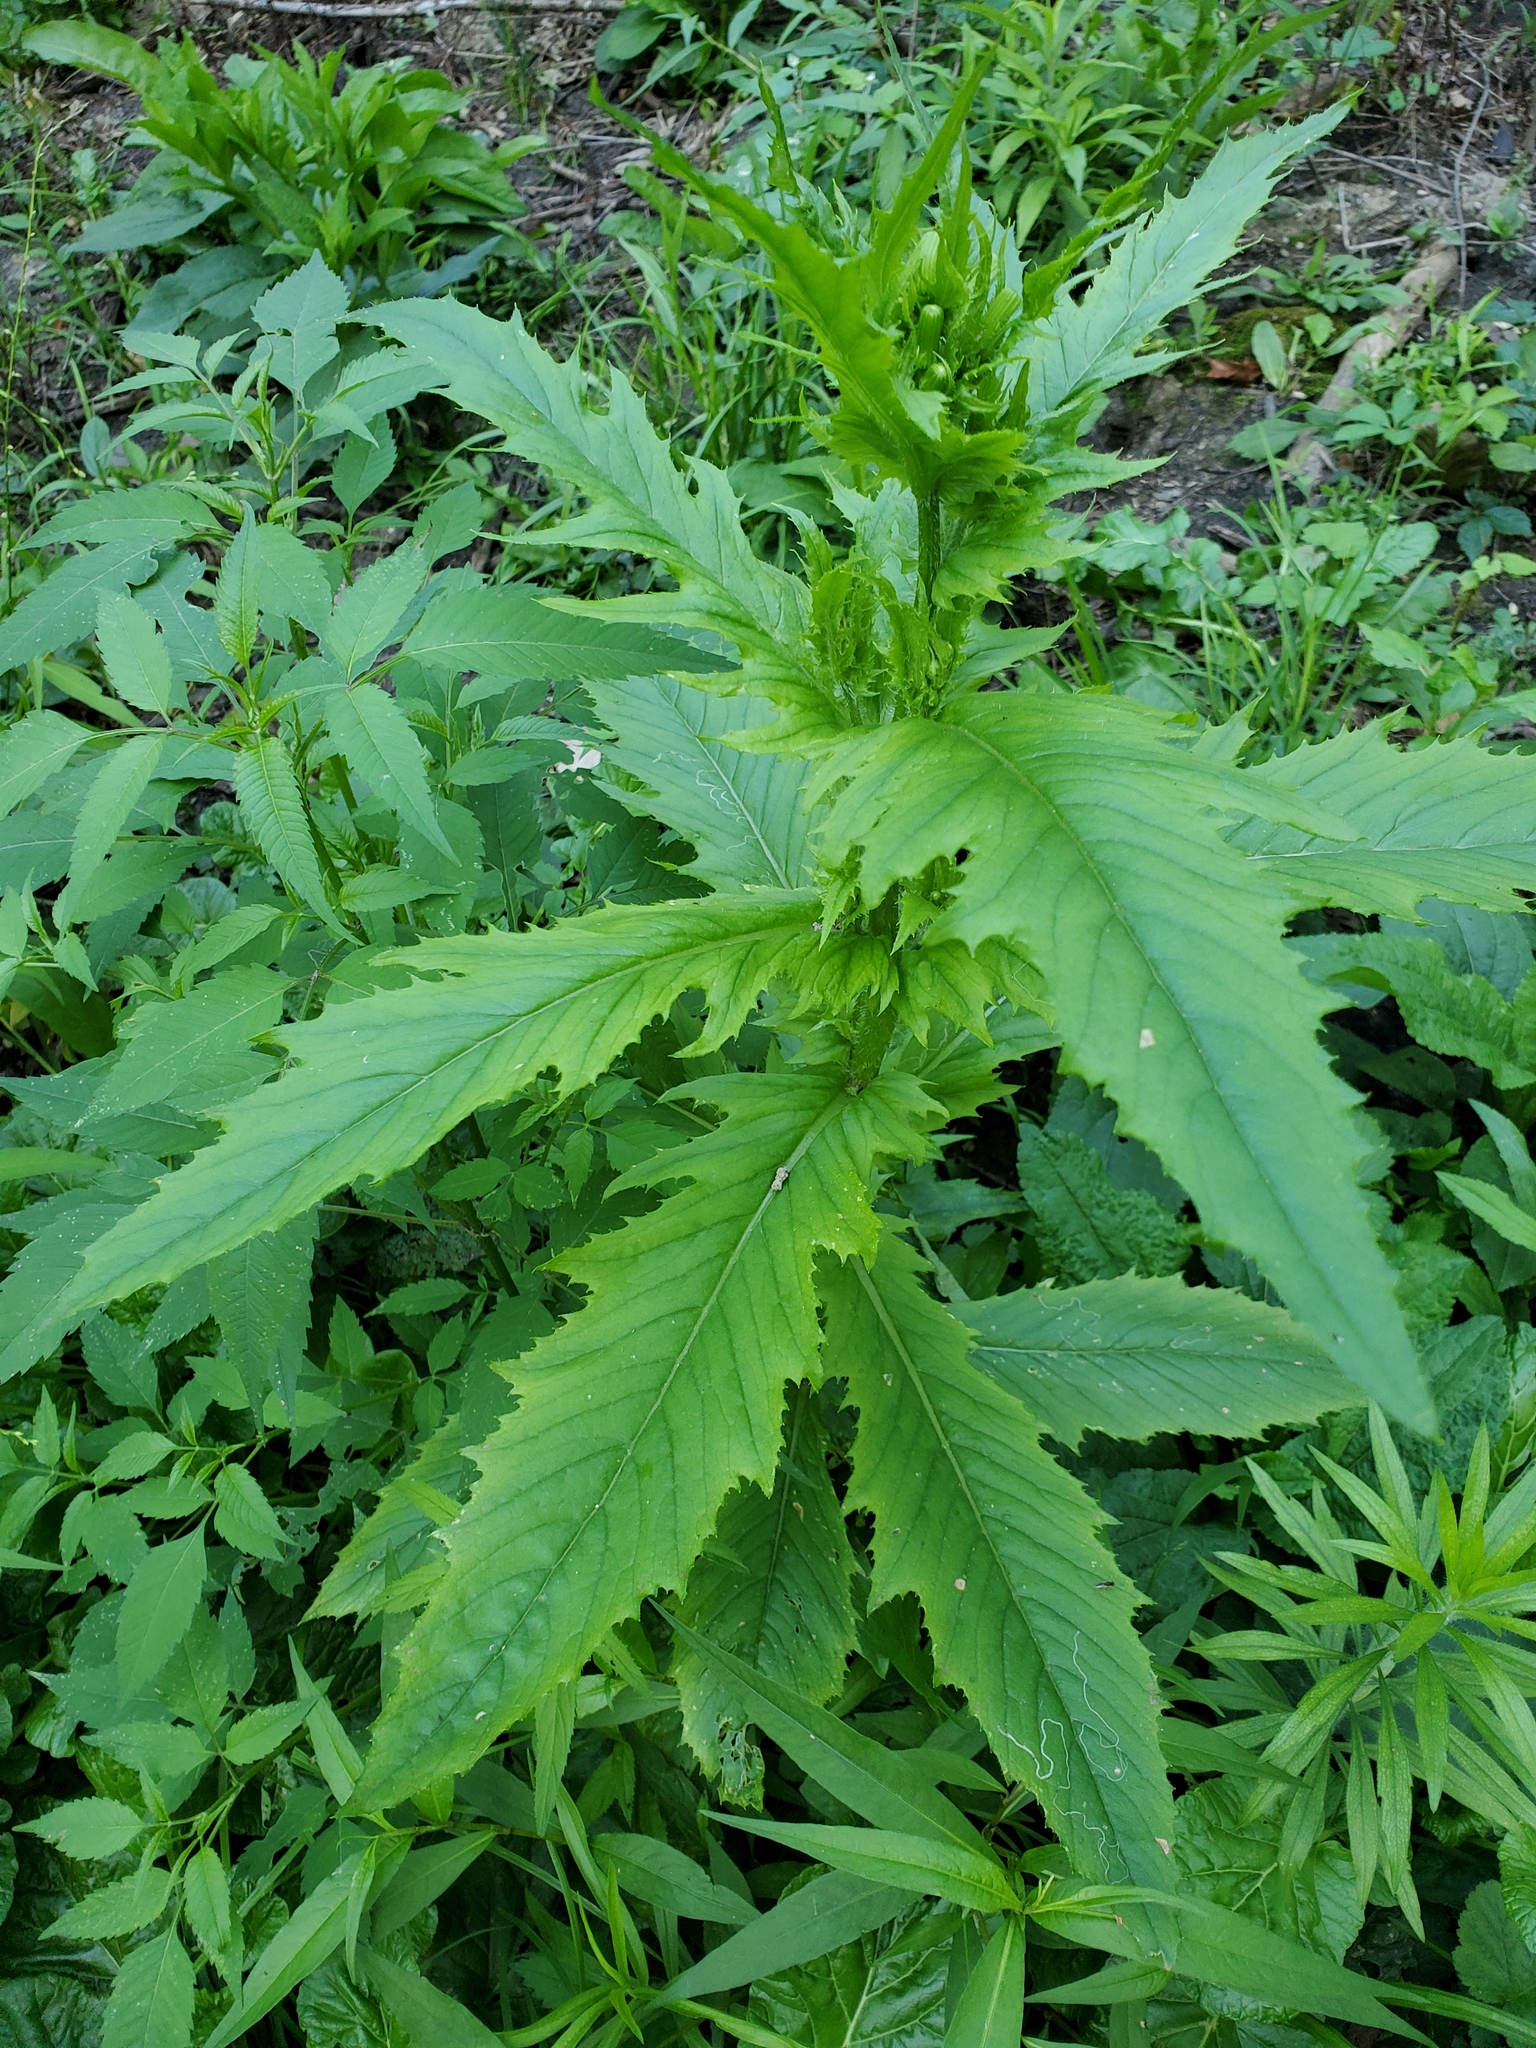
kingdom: Plantae
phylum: Tracheophyta
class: Magnoliopsida
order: Asterales
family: Asteraceae
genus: Erechtites
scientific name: Erechtites hieraciifolius
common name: American burnweed
